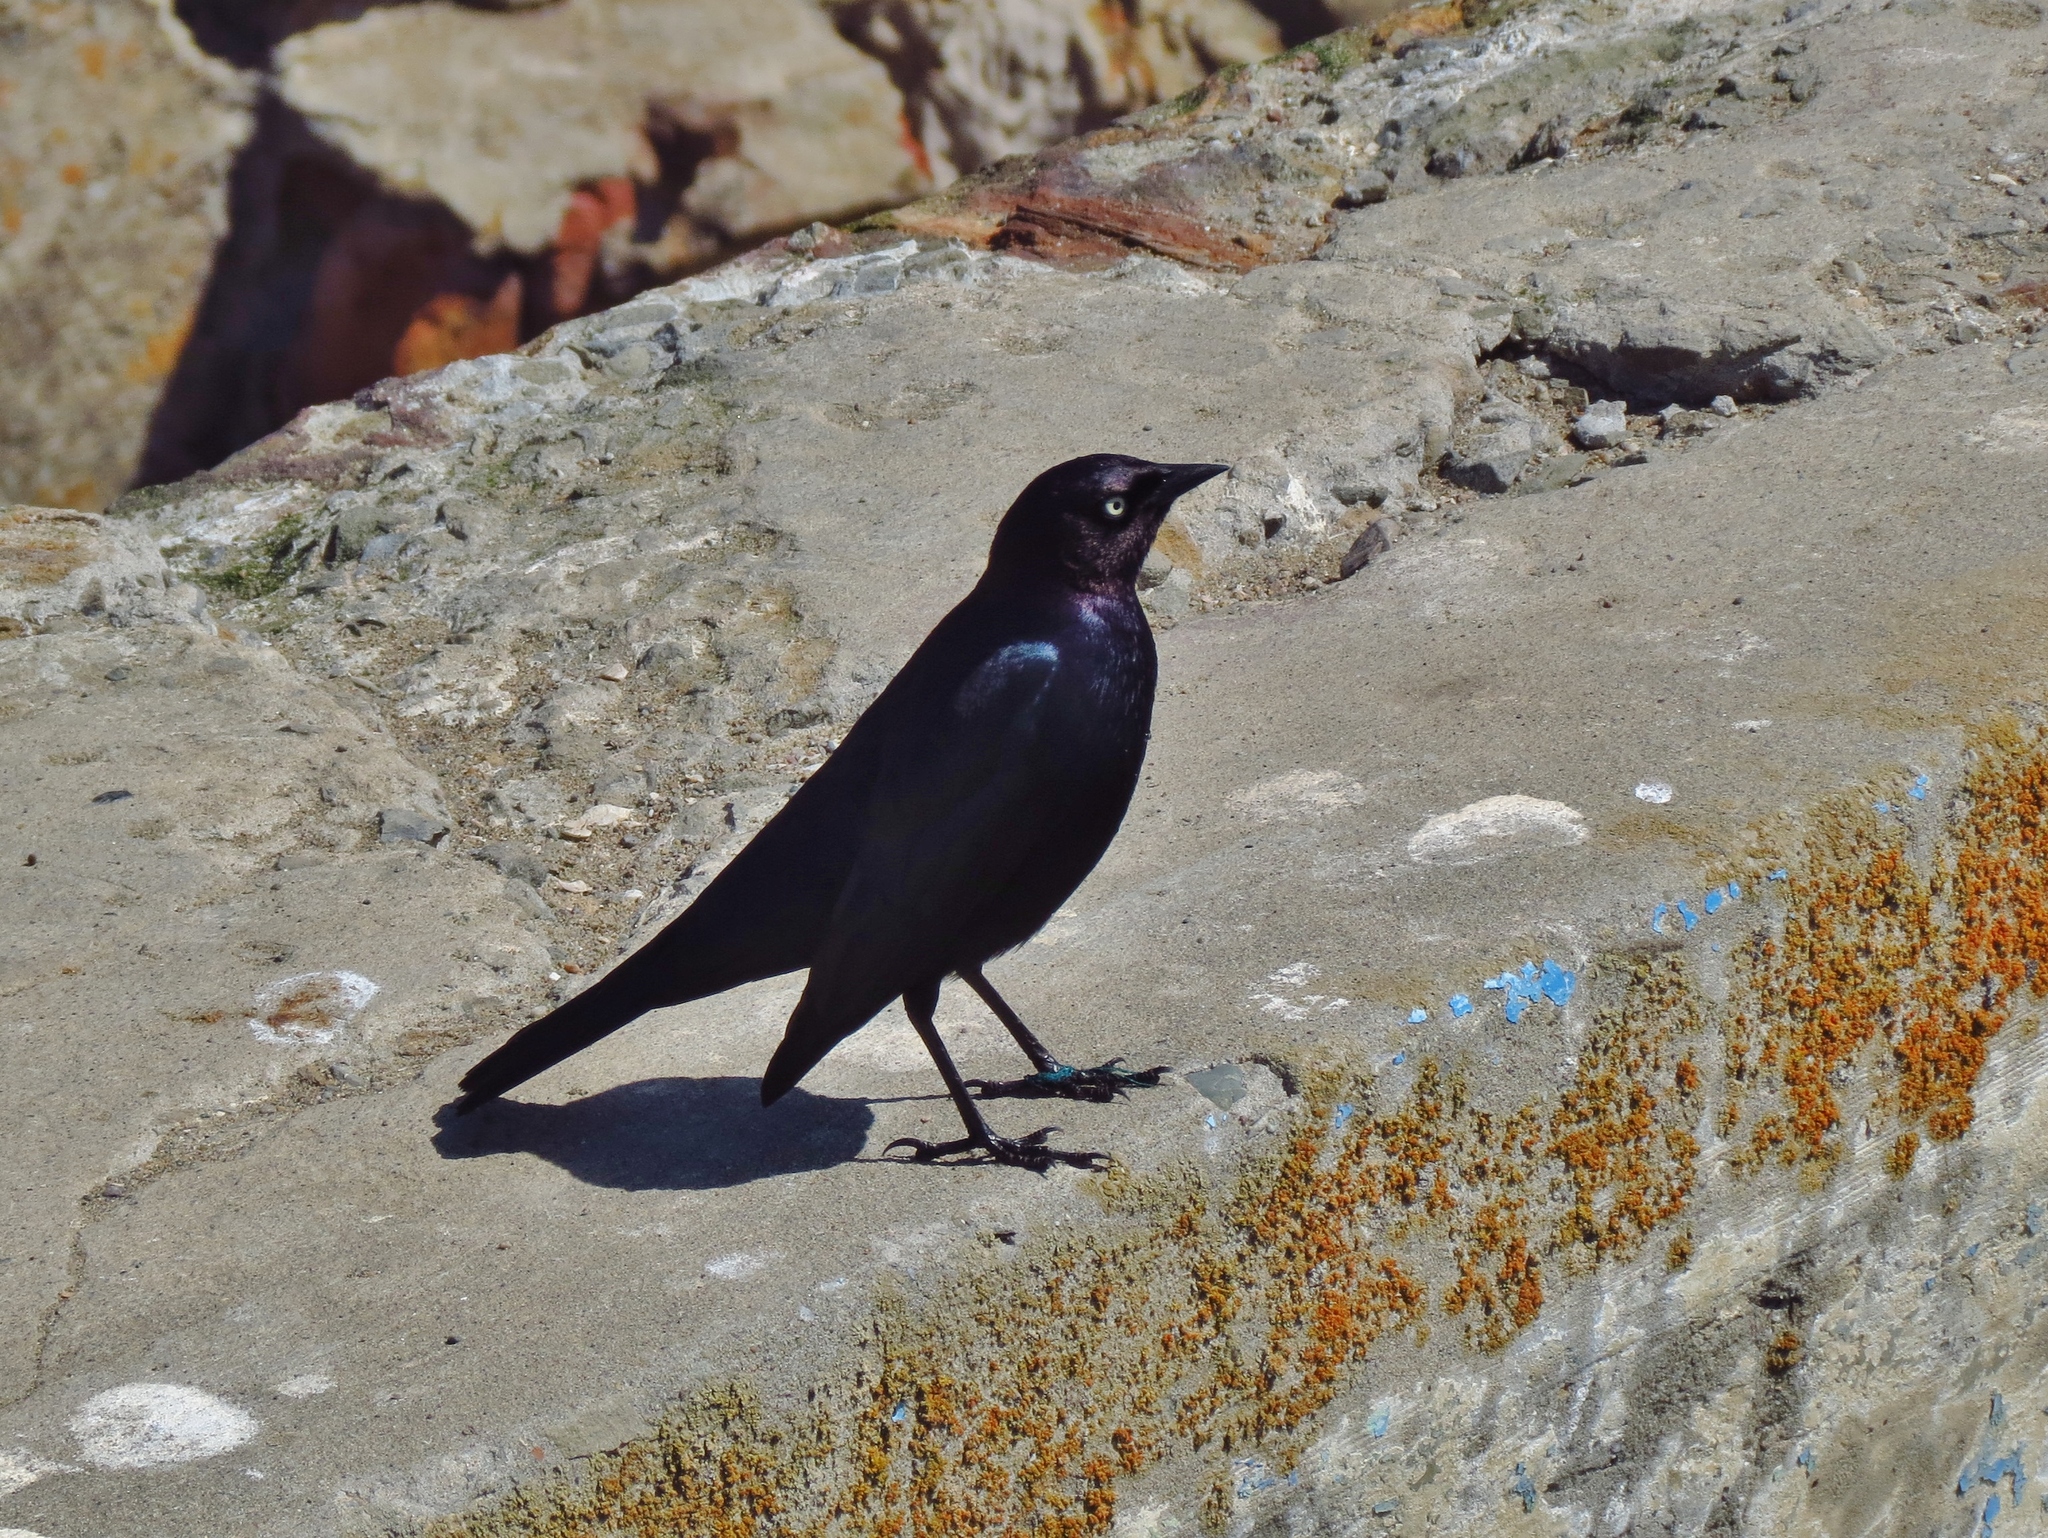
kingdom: Animalia
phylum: Chordata
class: Aves
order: Passeriformes
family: Icteridae
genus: Euphagus
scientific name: Euphagus cyanocephalus
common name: Brewer's blackbird
